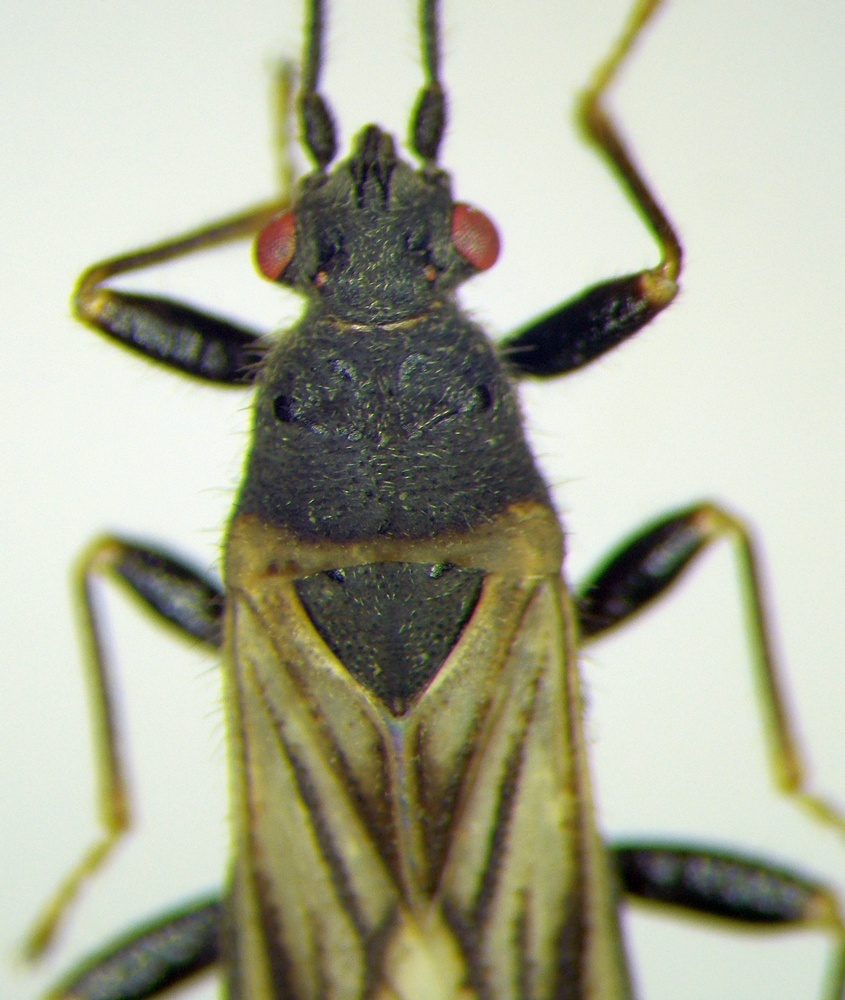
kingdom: Animalia
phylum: Arthropoda
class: Insecta
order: Hemiptera
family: Blissidae
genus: Ischnodemus
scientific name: Ischnodemus caspius
